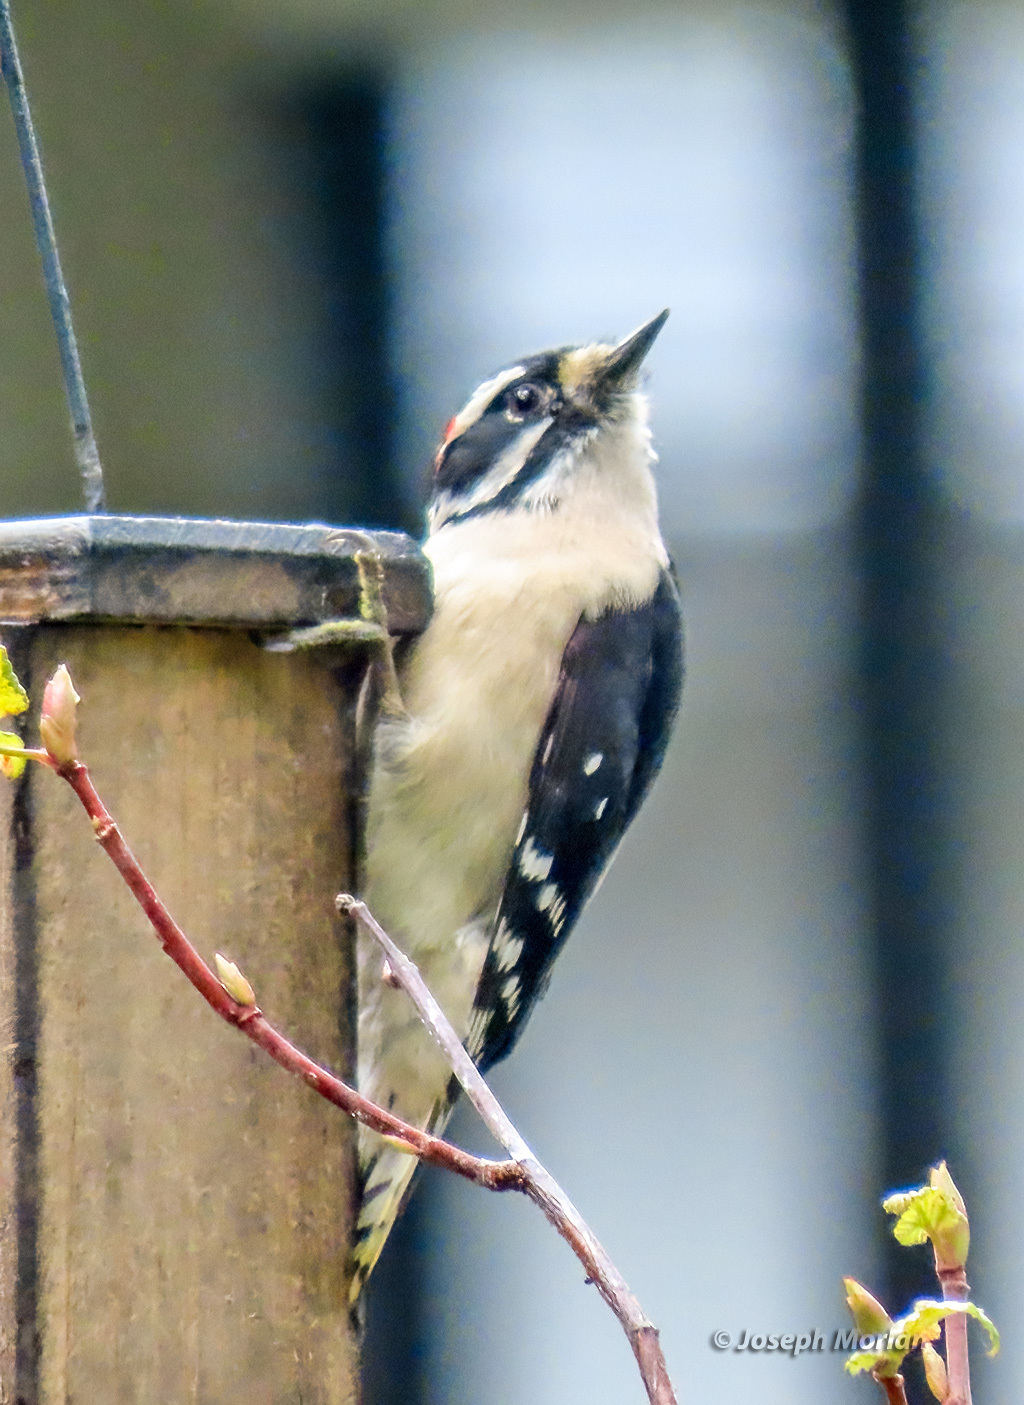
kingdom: Animalia
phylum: Chordata
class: Aves
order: Piciformes
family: Picidae
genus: Dryobates
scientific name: Dryobates pubescens
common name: Downy woodpecker
